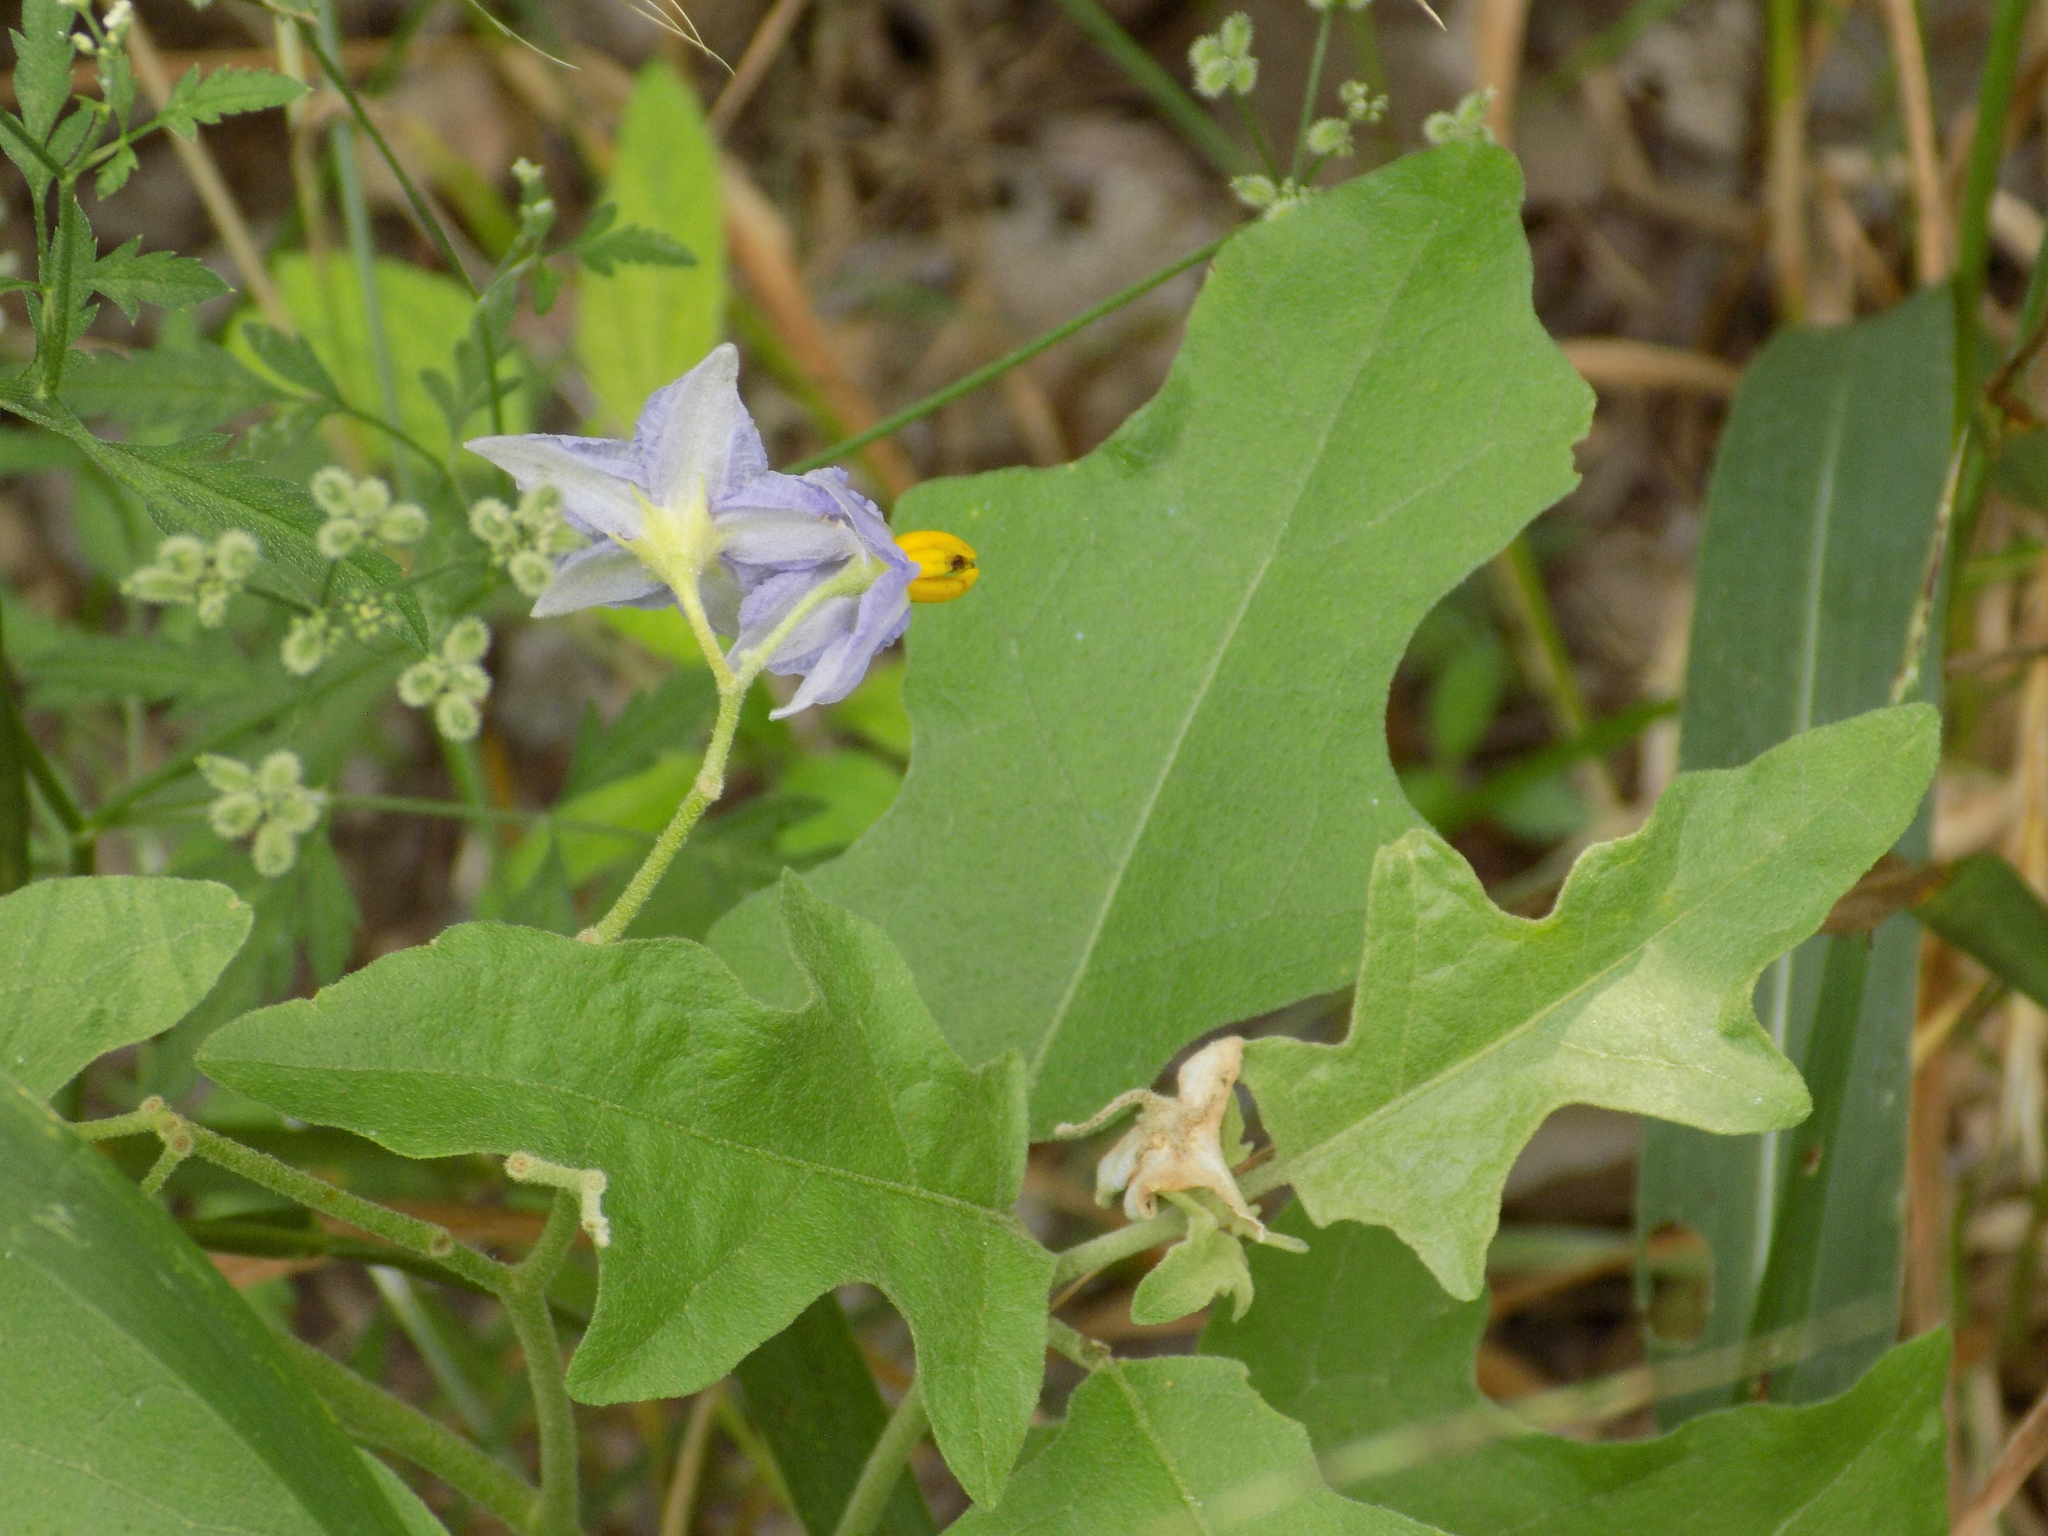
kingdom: Plantae
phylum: Tracheophyta
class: Magnoliopsida
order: Solanales
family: Solanaceae
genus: Solanum
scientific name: Solanum dimidiatum
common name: Carolina horse-nettle
